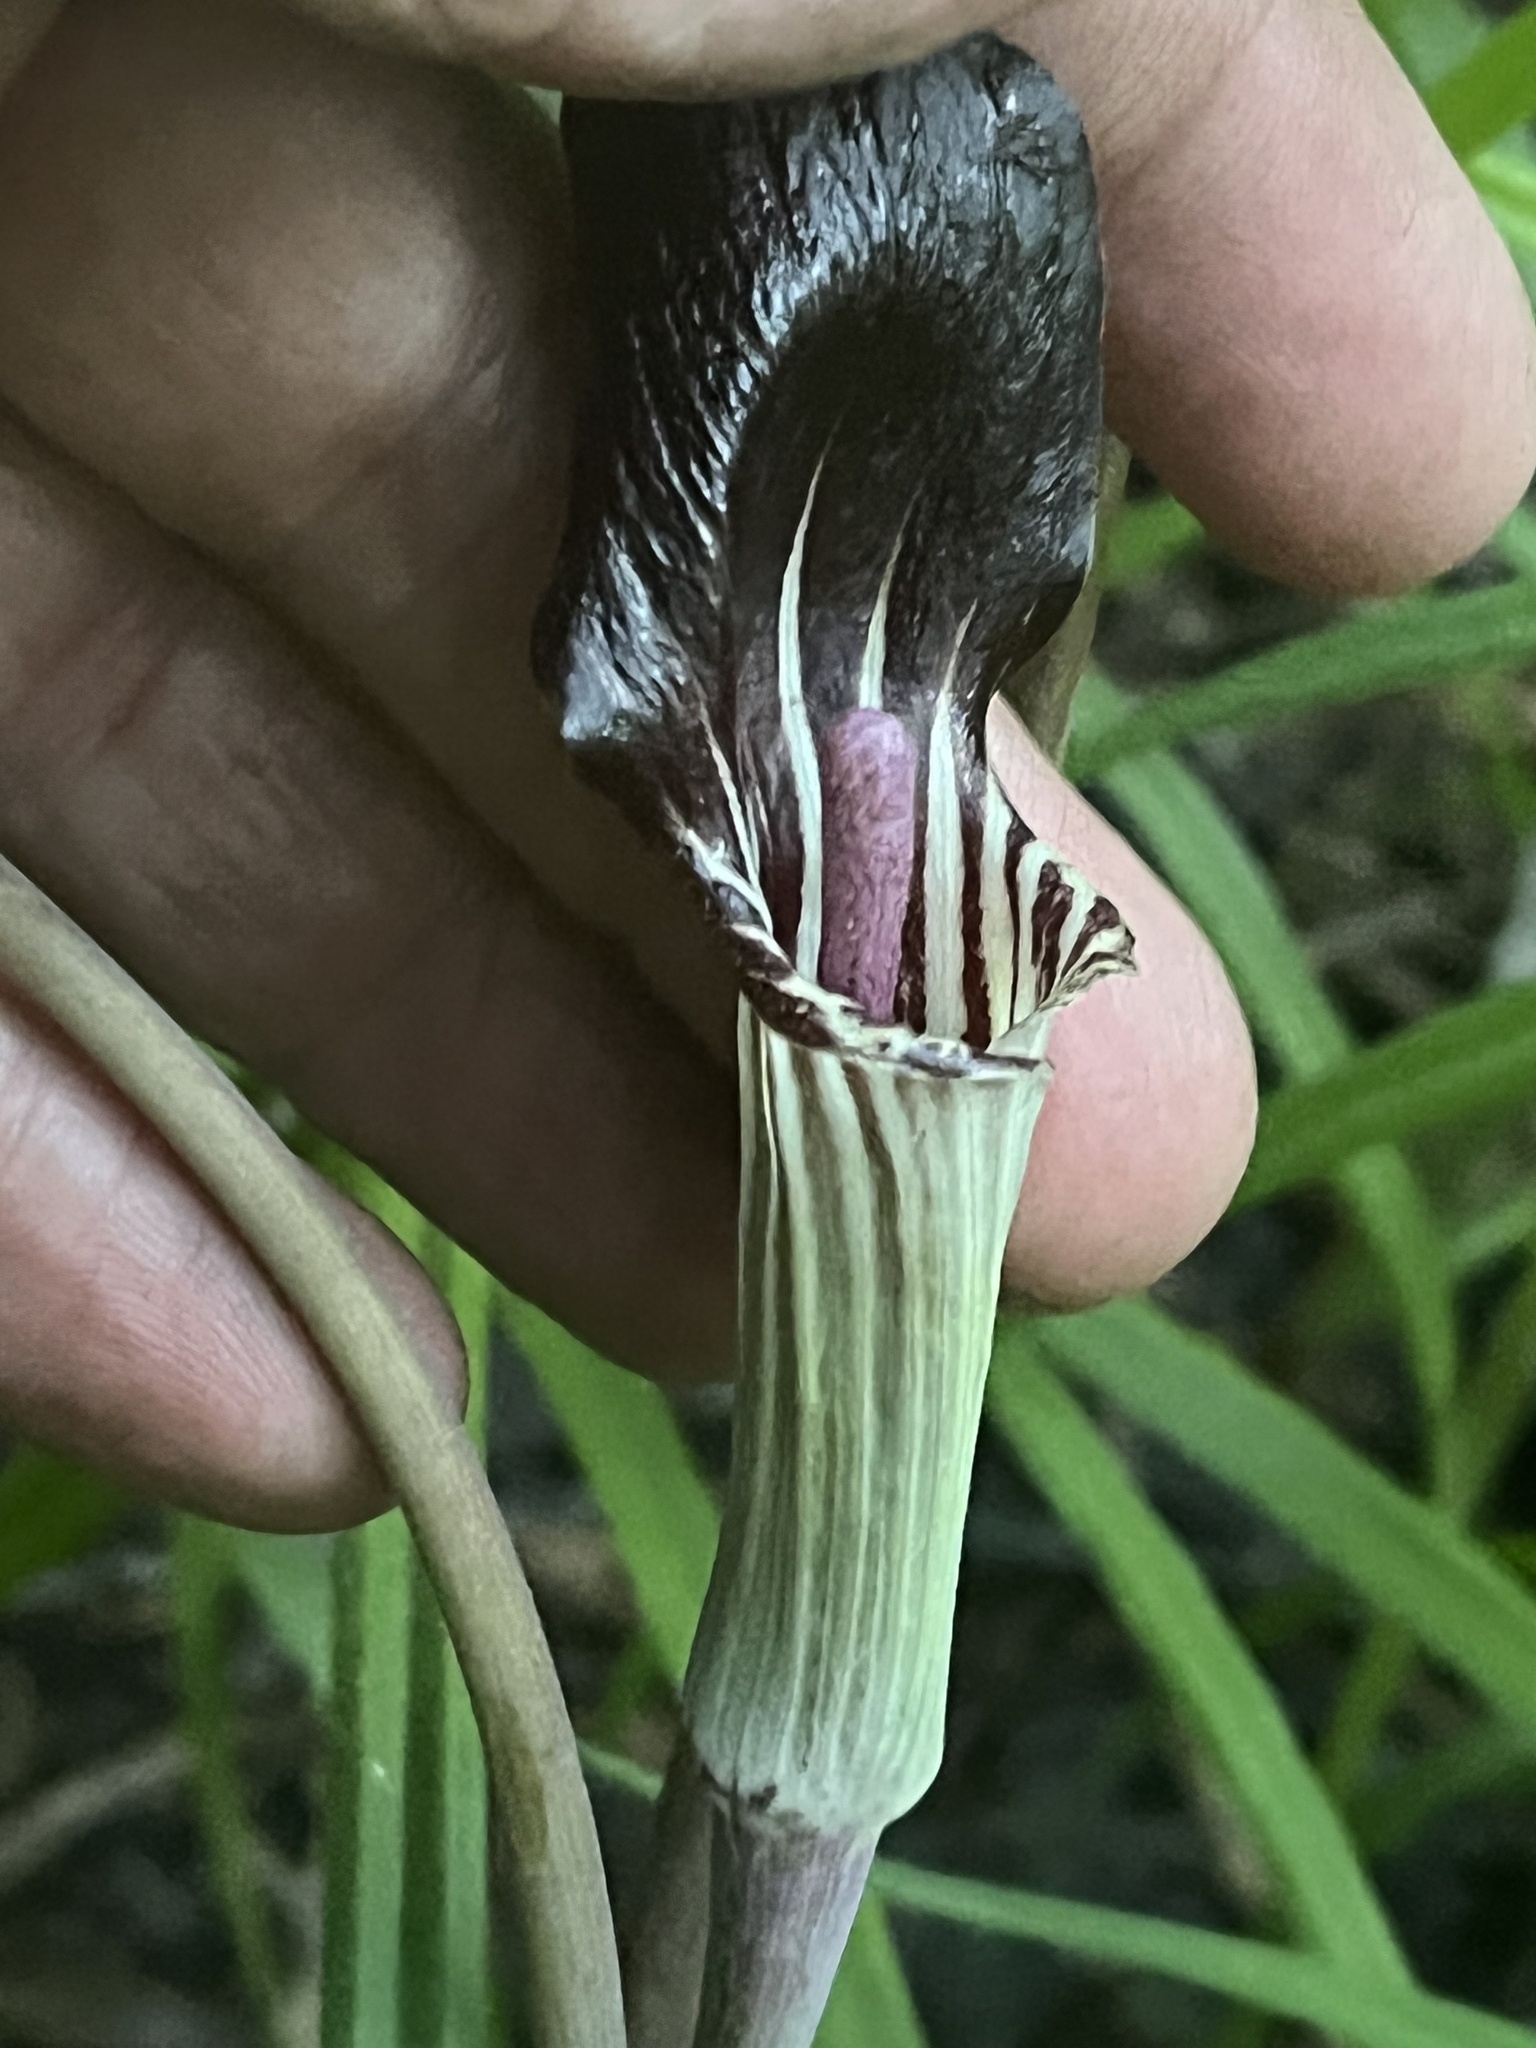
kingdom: Plantae
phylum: Tracheophyta
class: Liliopsida
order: Alismatales
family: Araceae
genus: Arisaema
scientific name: Arisaema triphyllum
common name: Jack-in-the-pulpit
